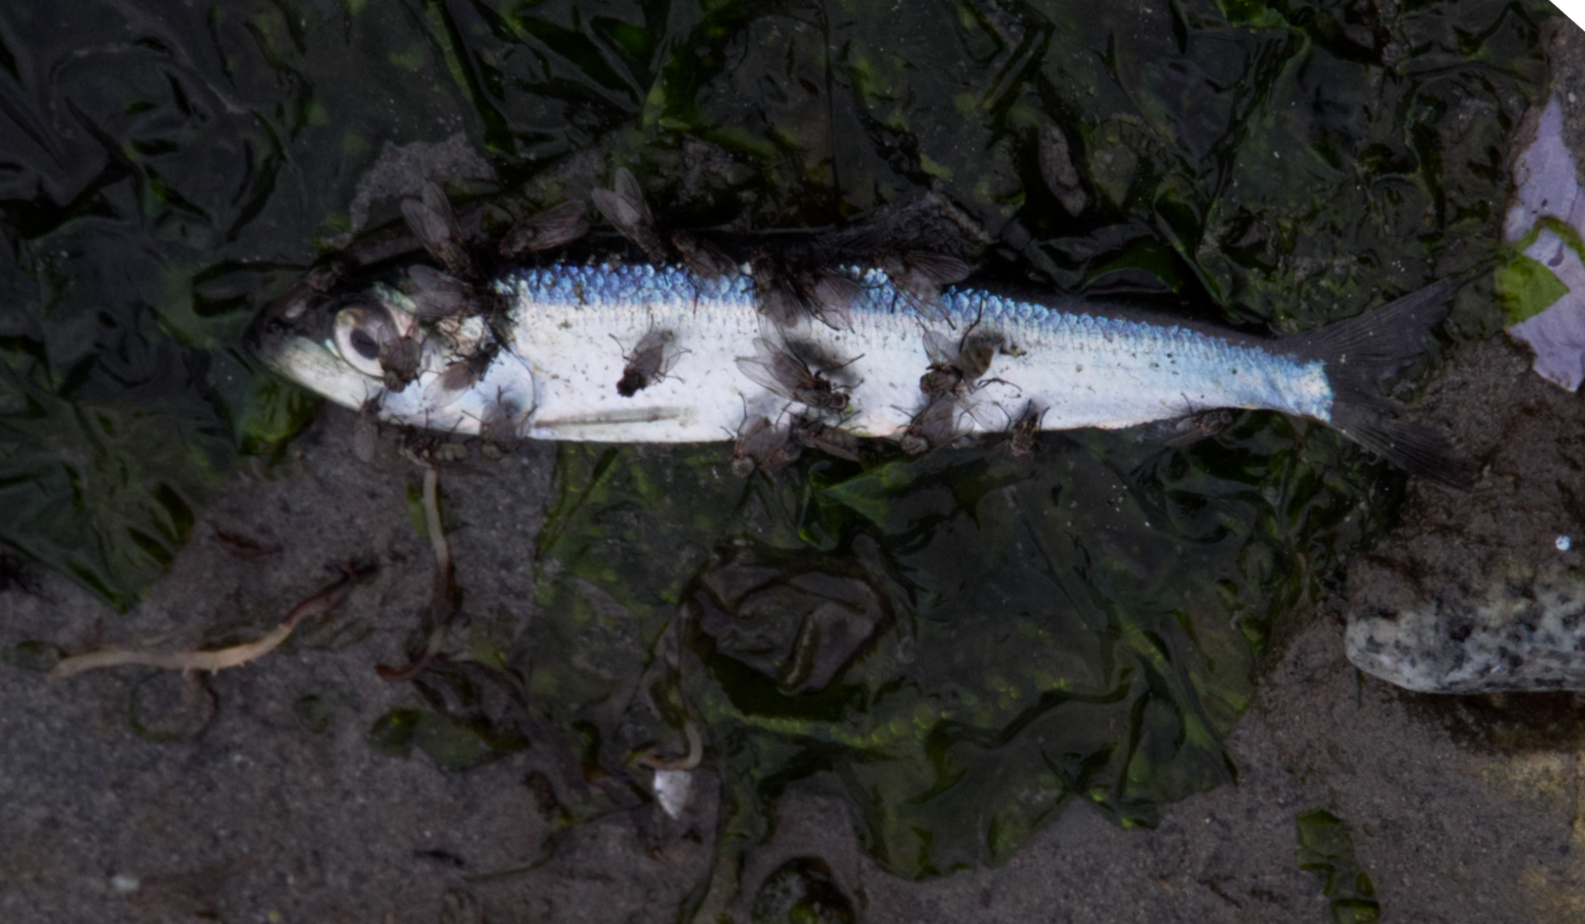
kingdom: Animalia
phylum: Chordata
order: Clupeiformes
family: Clupeidae
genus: Clupea
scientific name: Clupea pallasii
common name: Pacific herring
